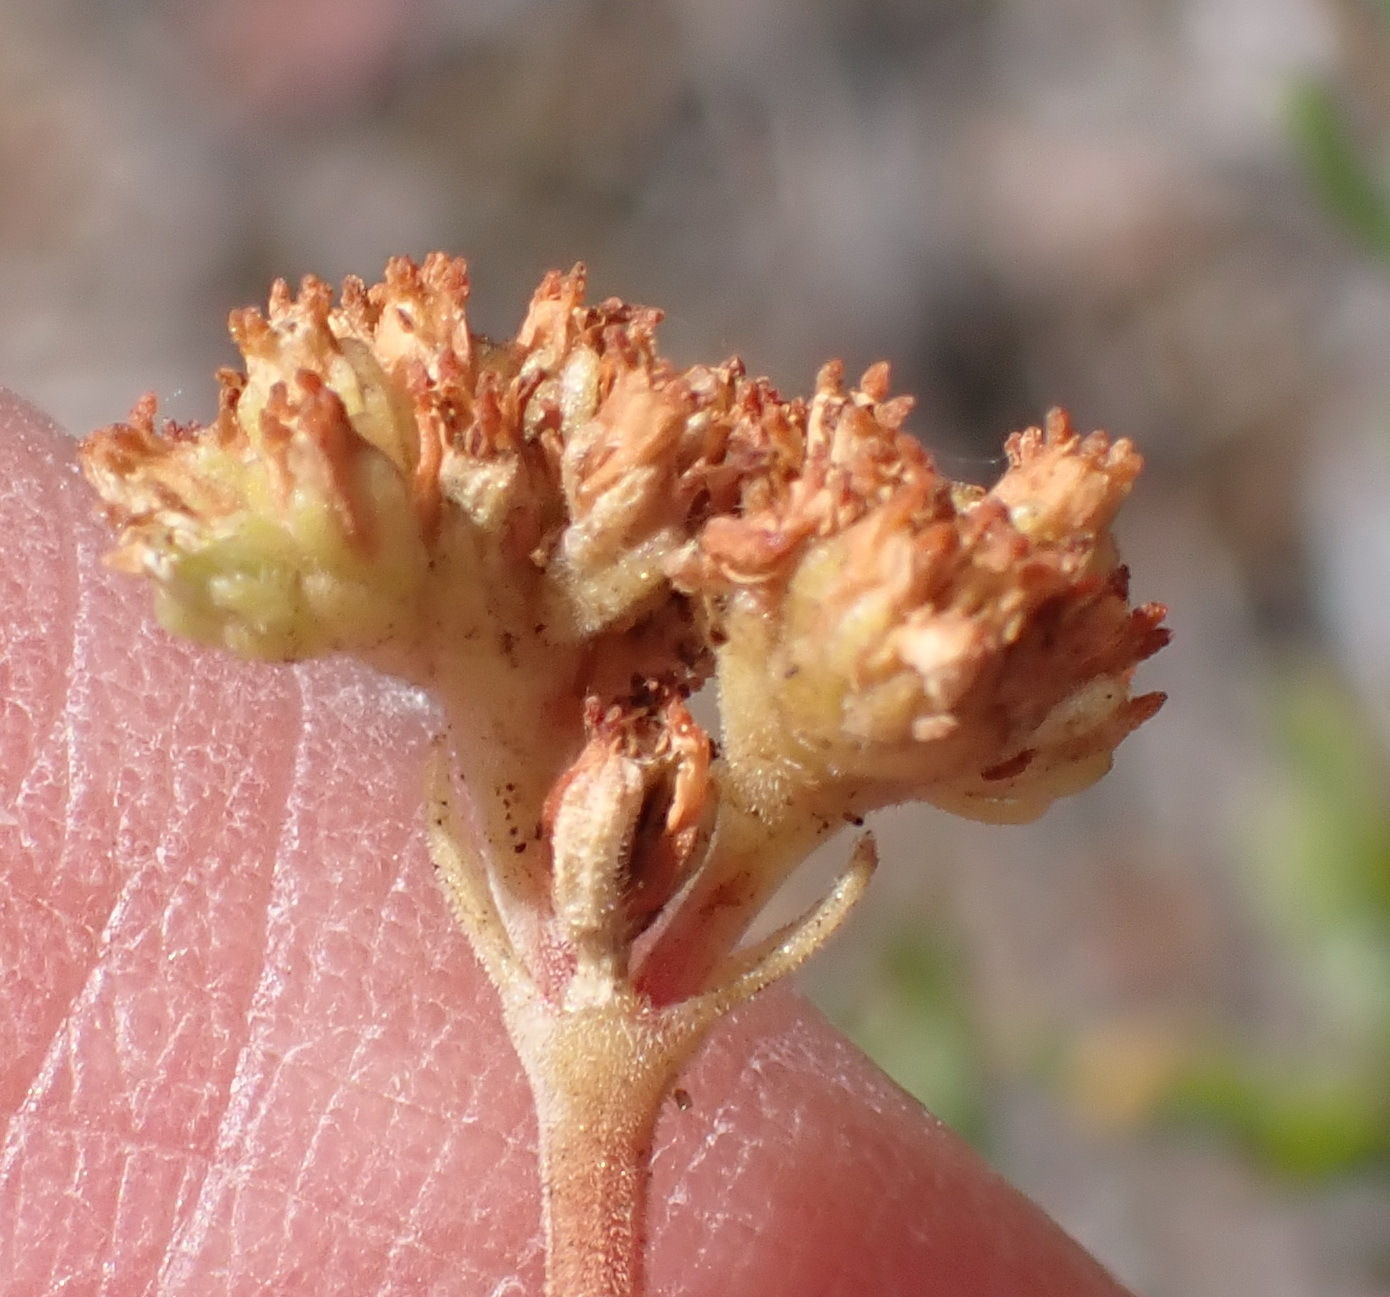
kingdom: Plantae
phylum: Tracheophyta
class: Magnoliopsida
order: Saxifragales
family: Crassulaceae
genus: Crassula
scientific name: Crassula pubescens
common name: Jersey pigmyweed
